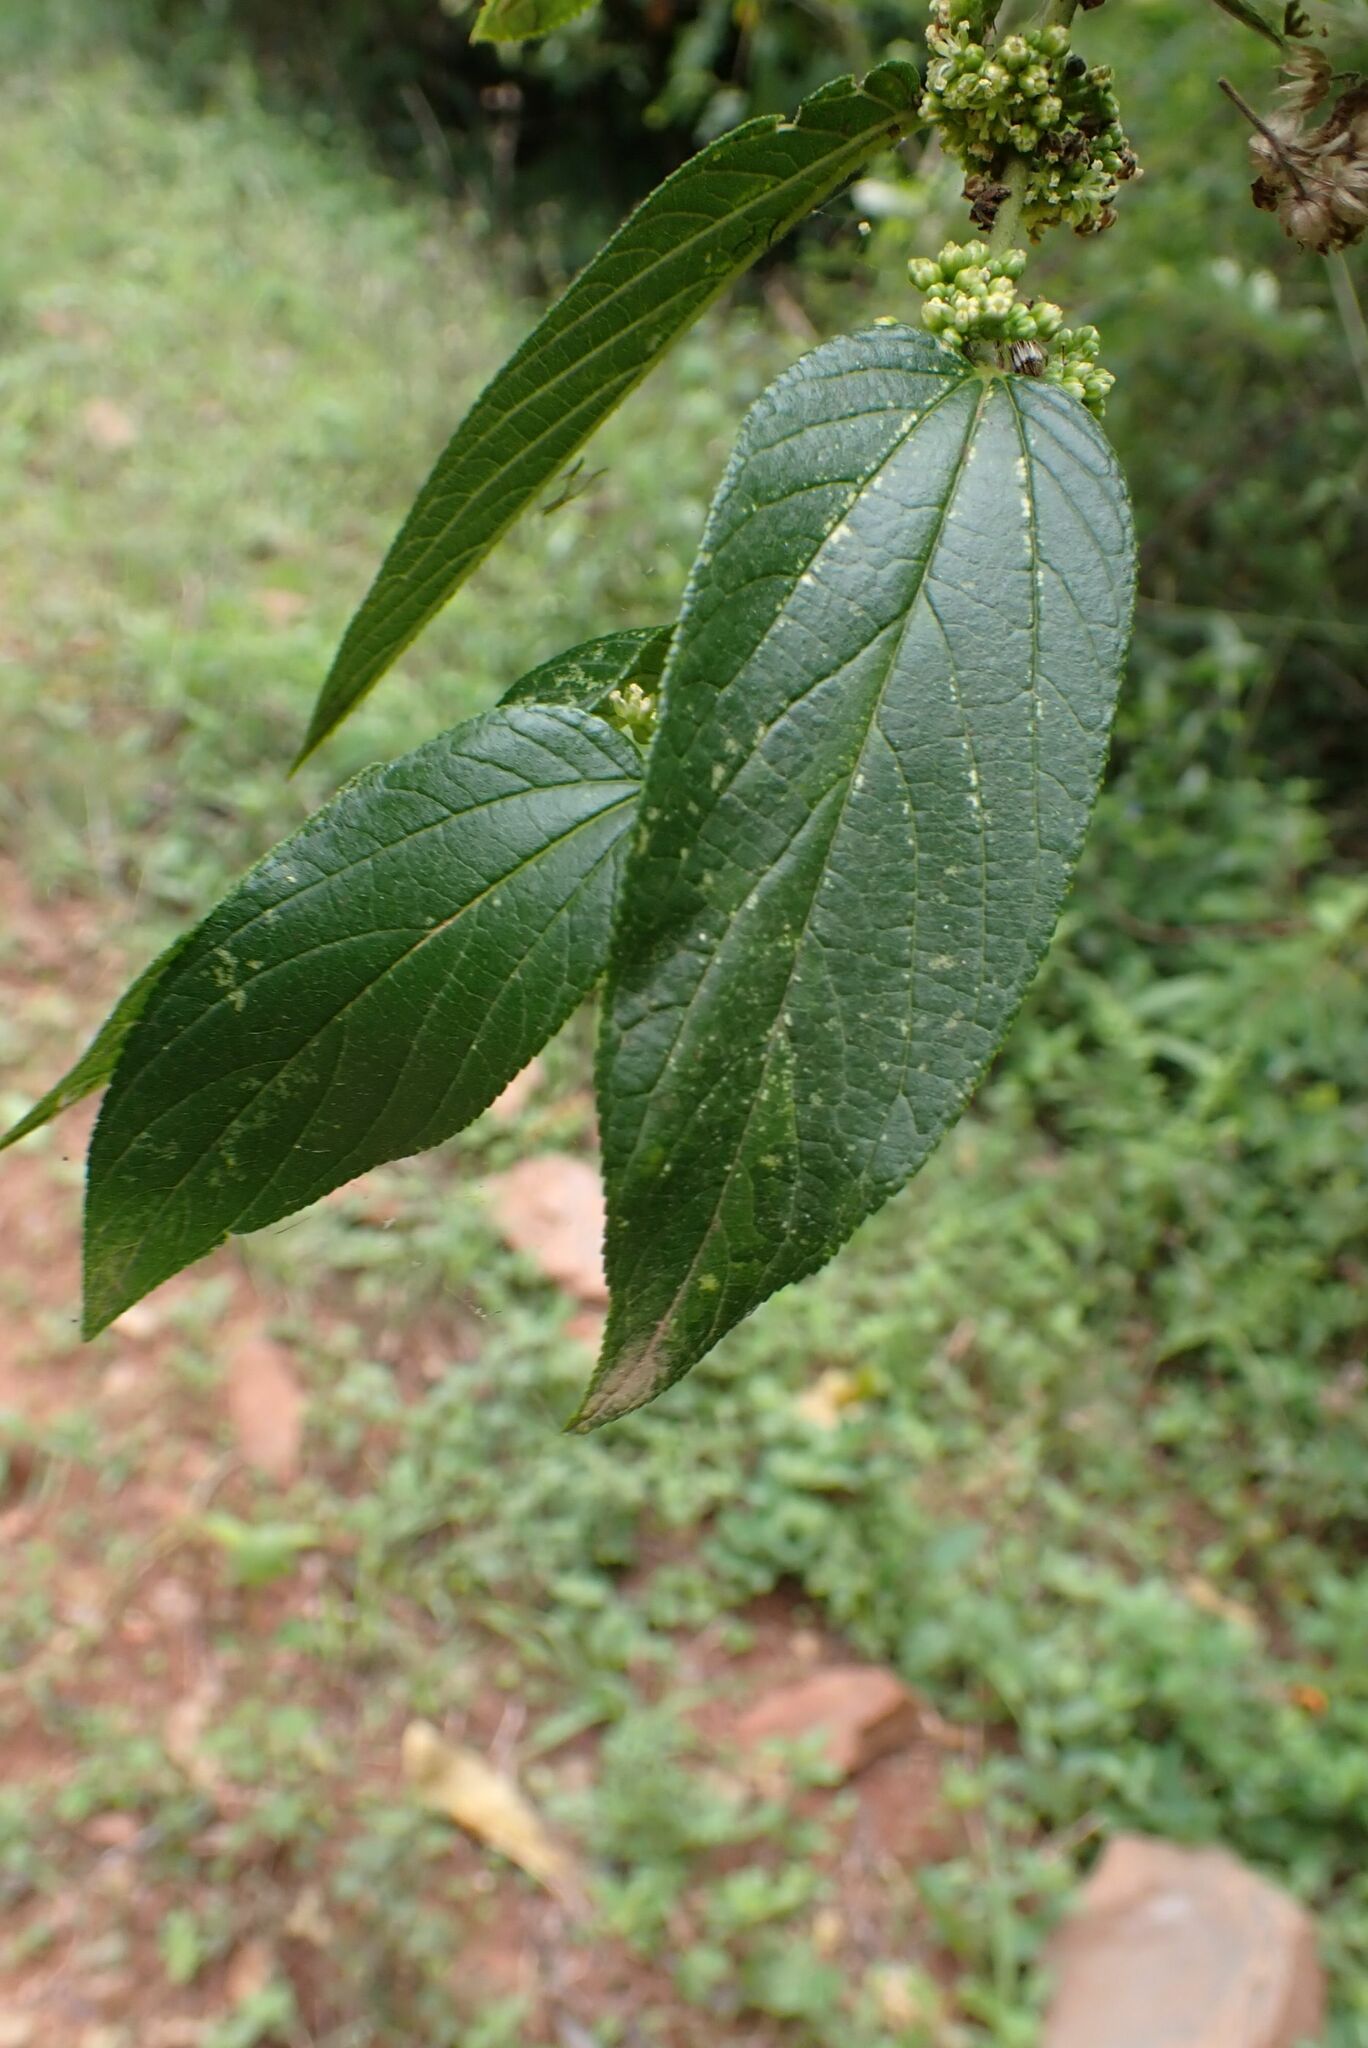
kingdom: Plantae
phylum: Tracheophyta
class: Magnoliopsida
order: Rosales
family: Cannabaceae
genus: Trema
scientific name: Trema orientale
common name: Indian charcoal tree
